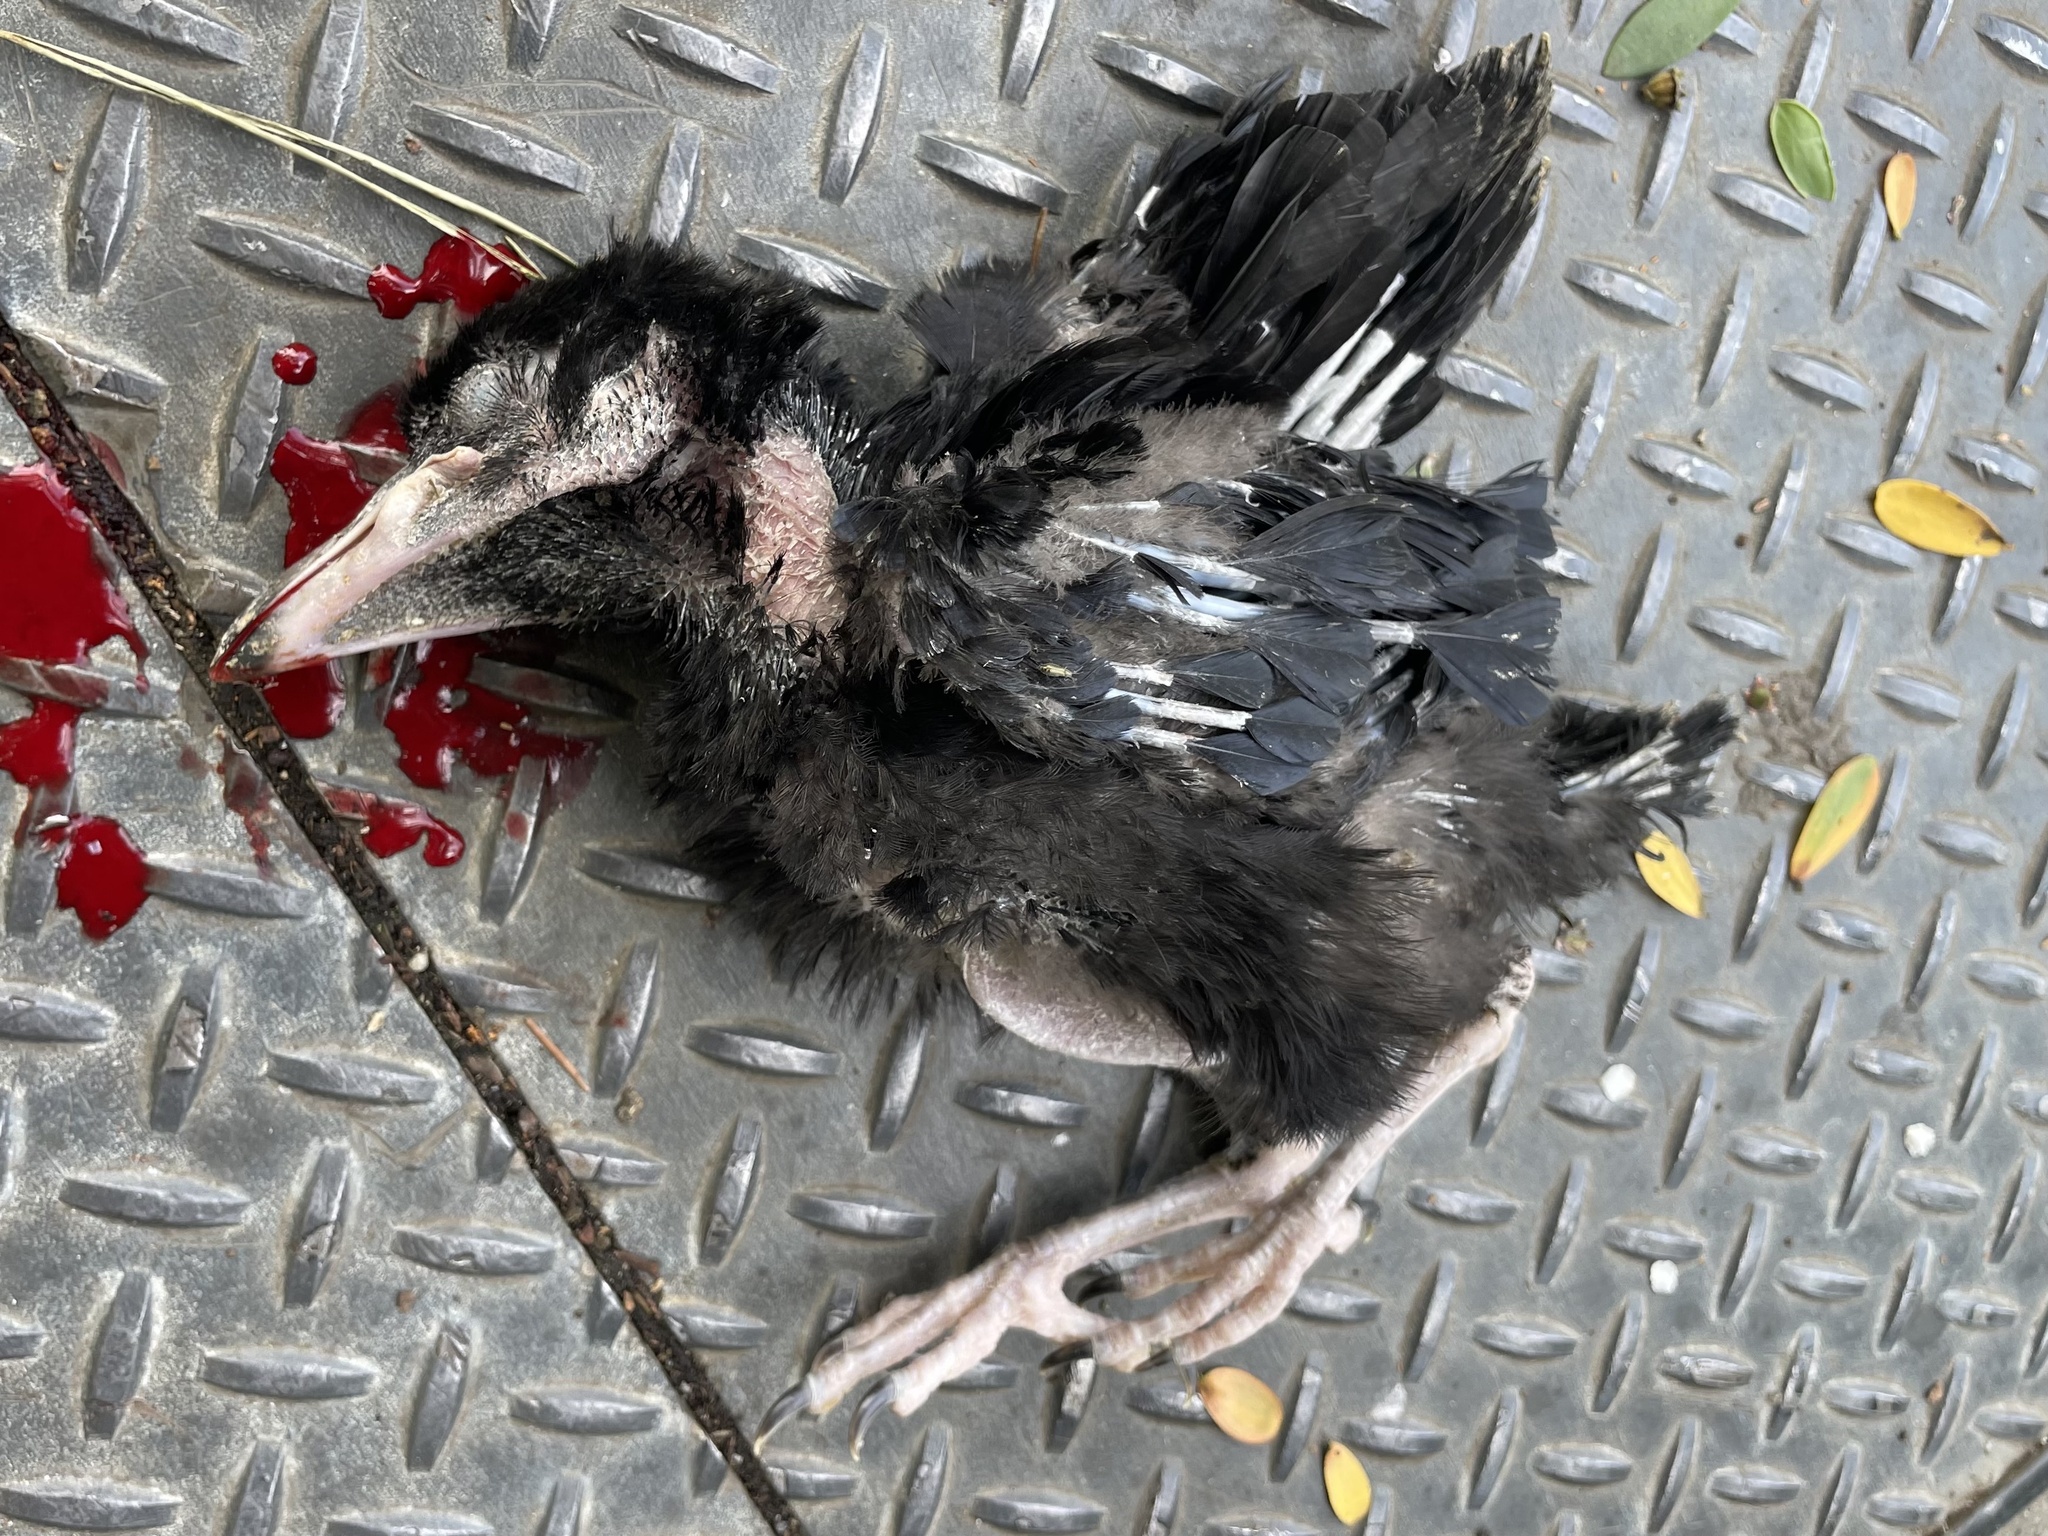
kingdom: Animalia
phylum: Chordata
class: Aves
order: Passeriformes
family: Corvidae
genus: Corvus
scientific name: Corvus corax
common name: Common raven
